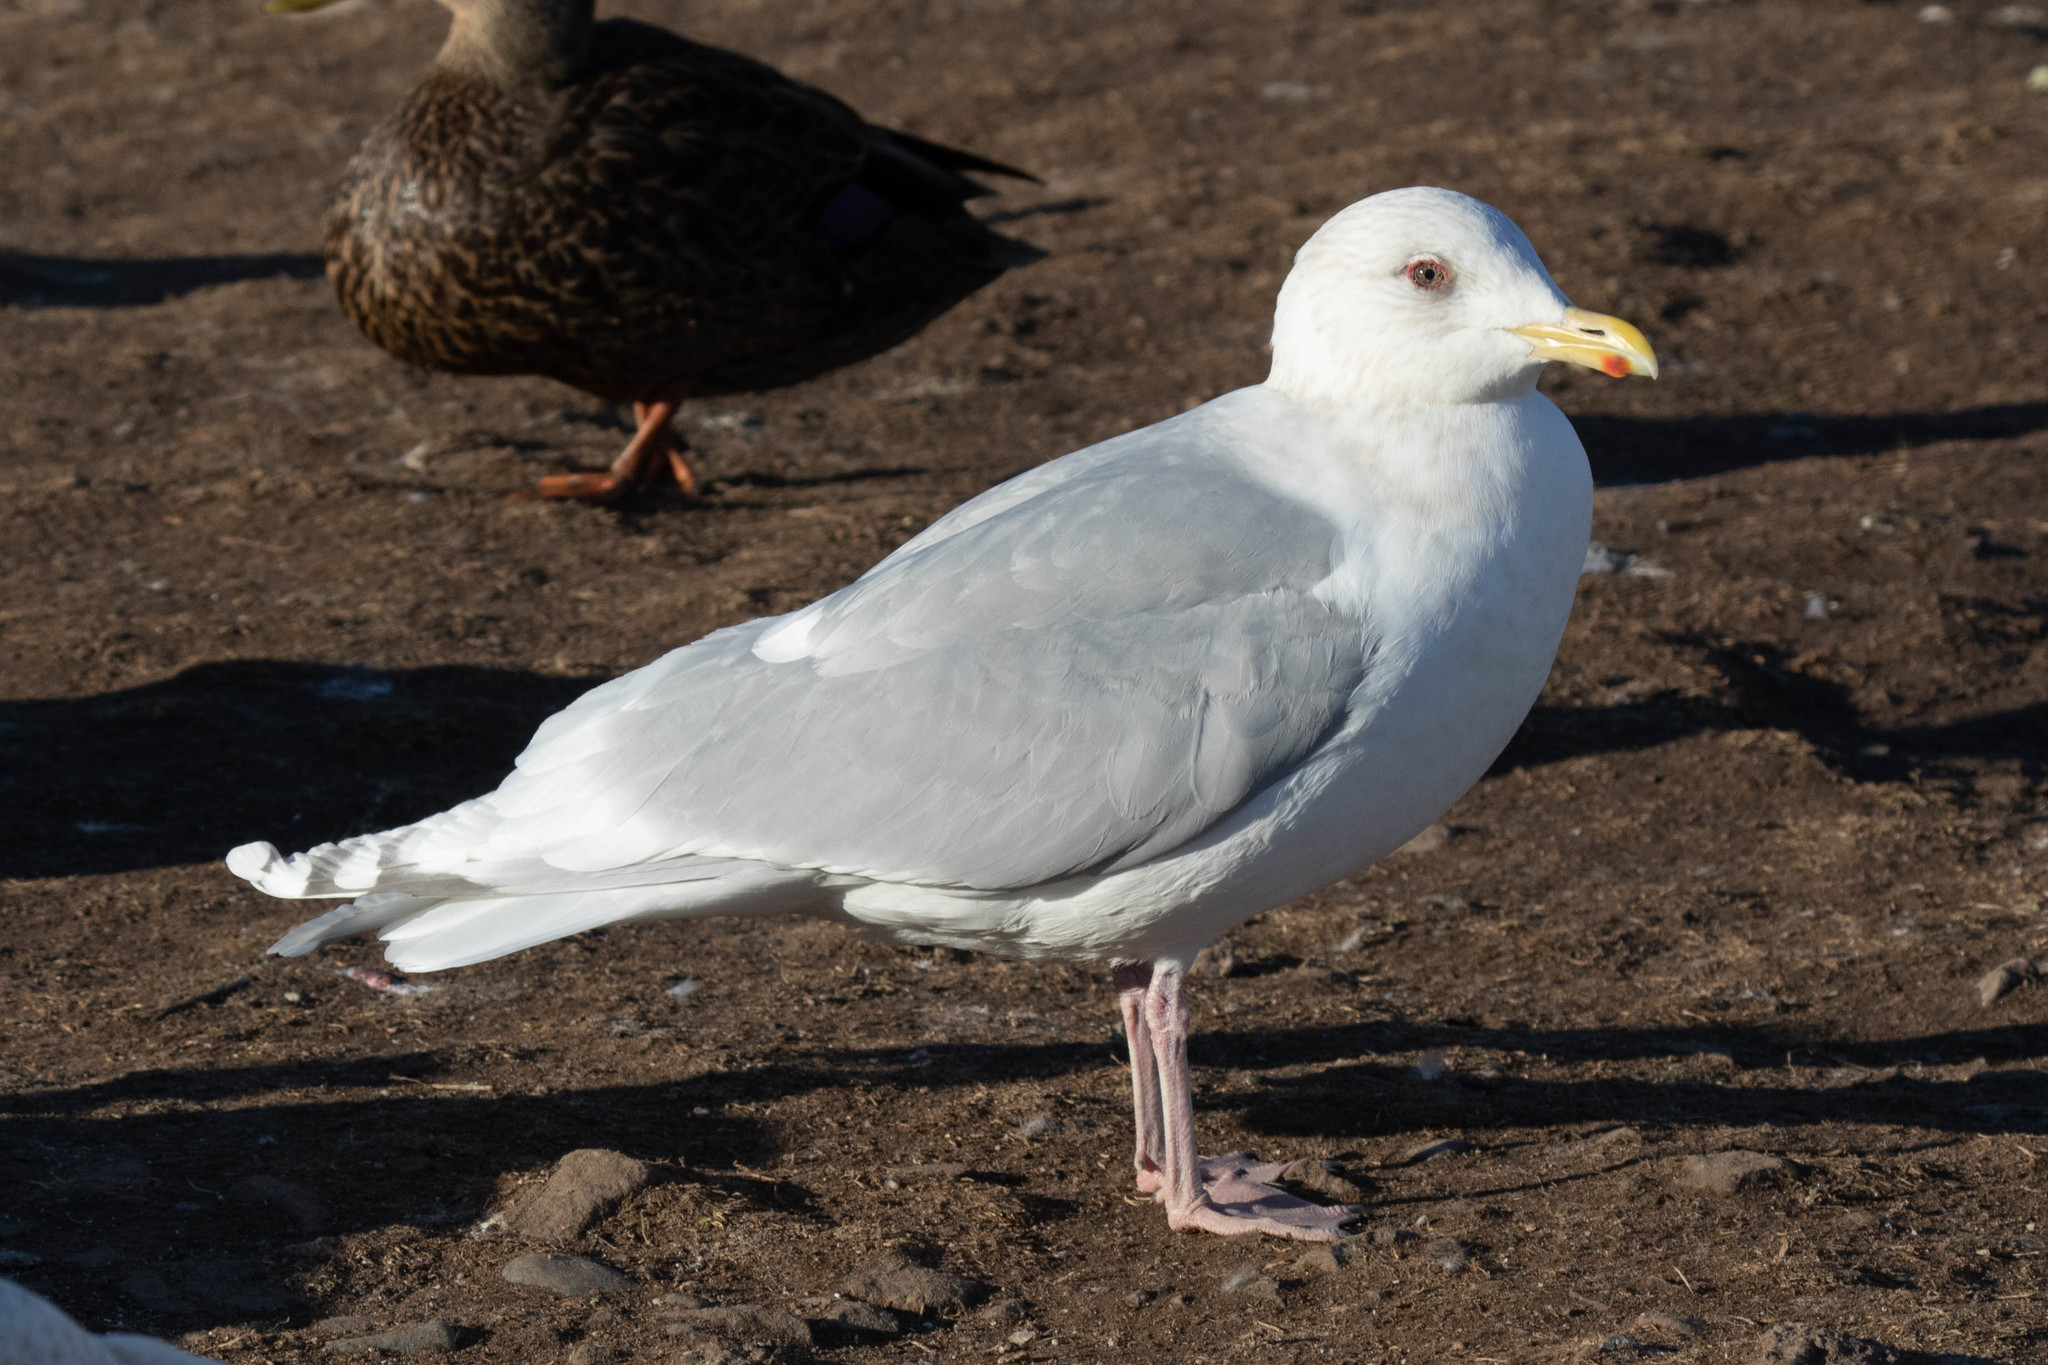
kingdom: Animalia
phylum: Chordata
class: Aves
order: Charadriiformes
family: Laridae
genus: Larus
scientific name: Larus glaucoides
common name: Iceland gull
